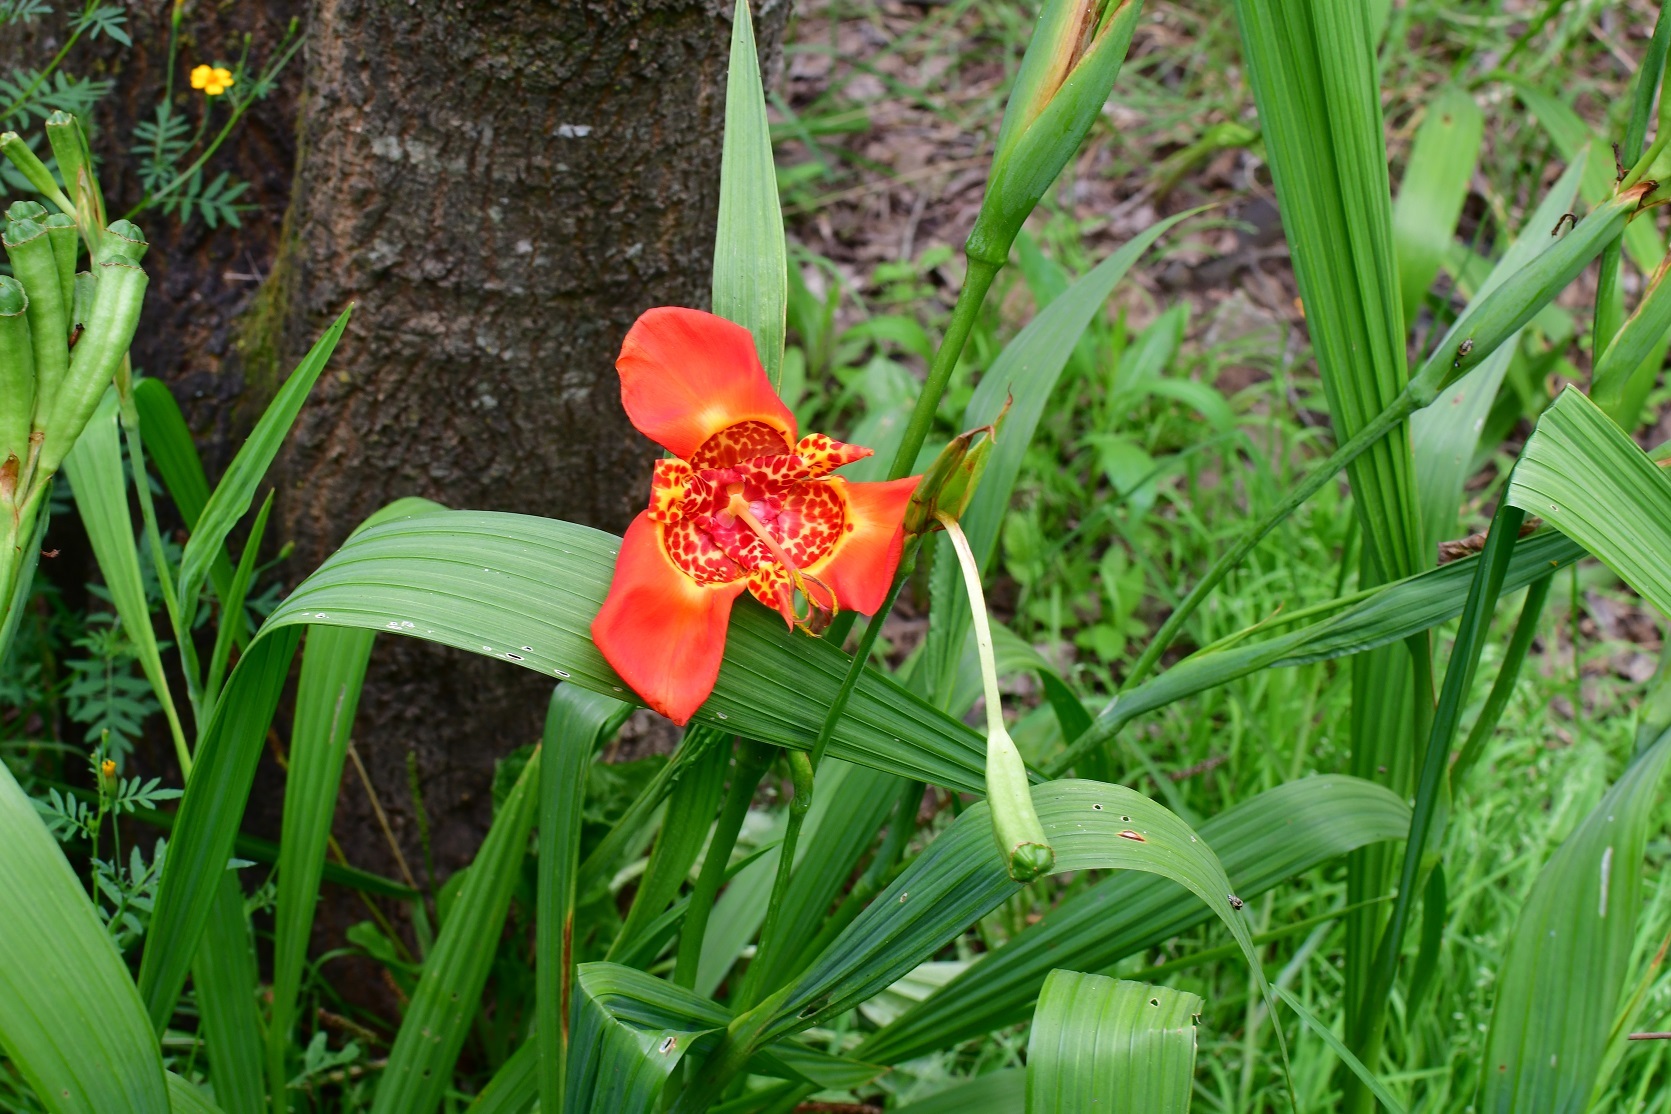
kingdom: Plantae
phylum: Tracheophyta
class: Liliopsida
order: Asparagales
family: Iridaceae
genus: Tigridia
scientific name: Tigridia pavonia
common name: Peacock-flower
